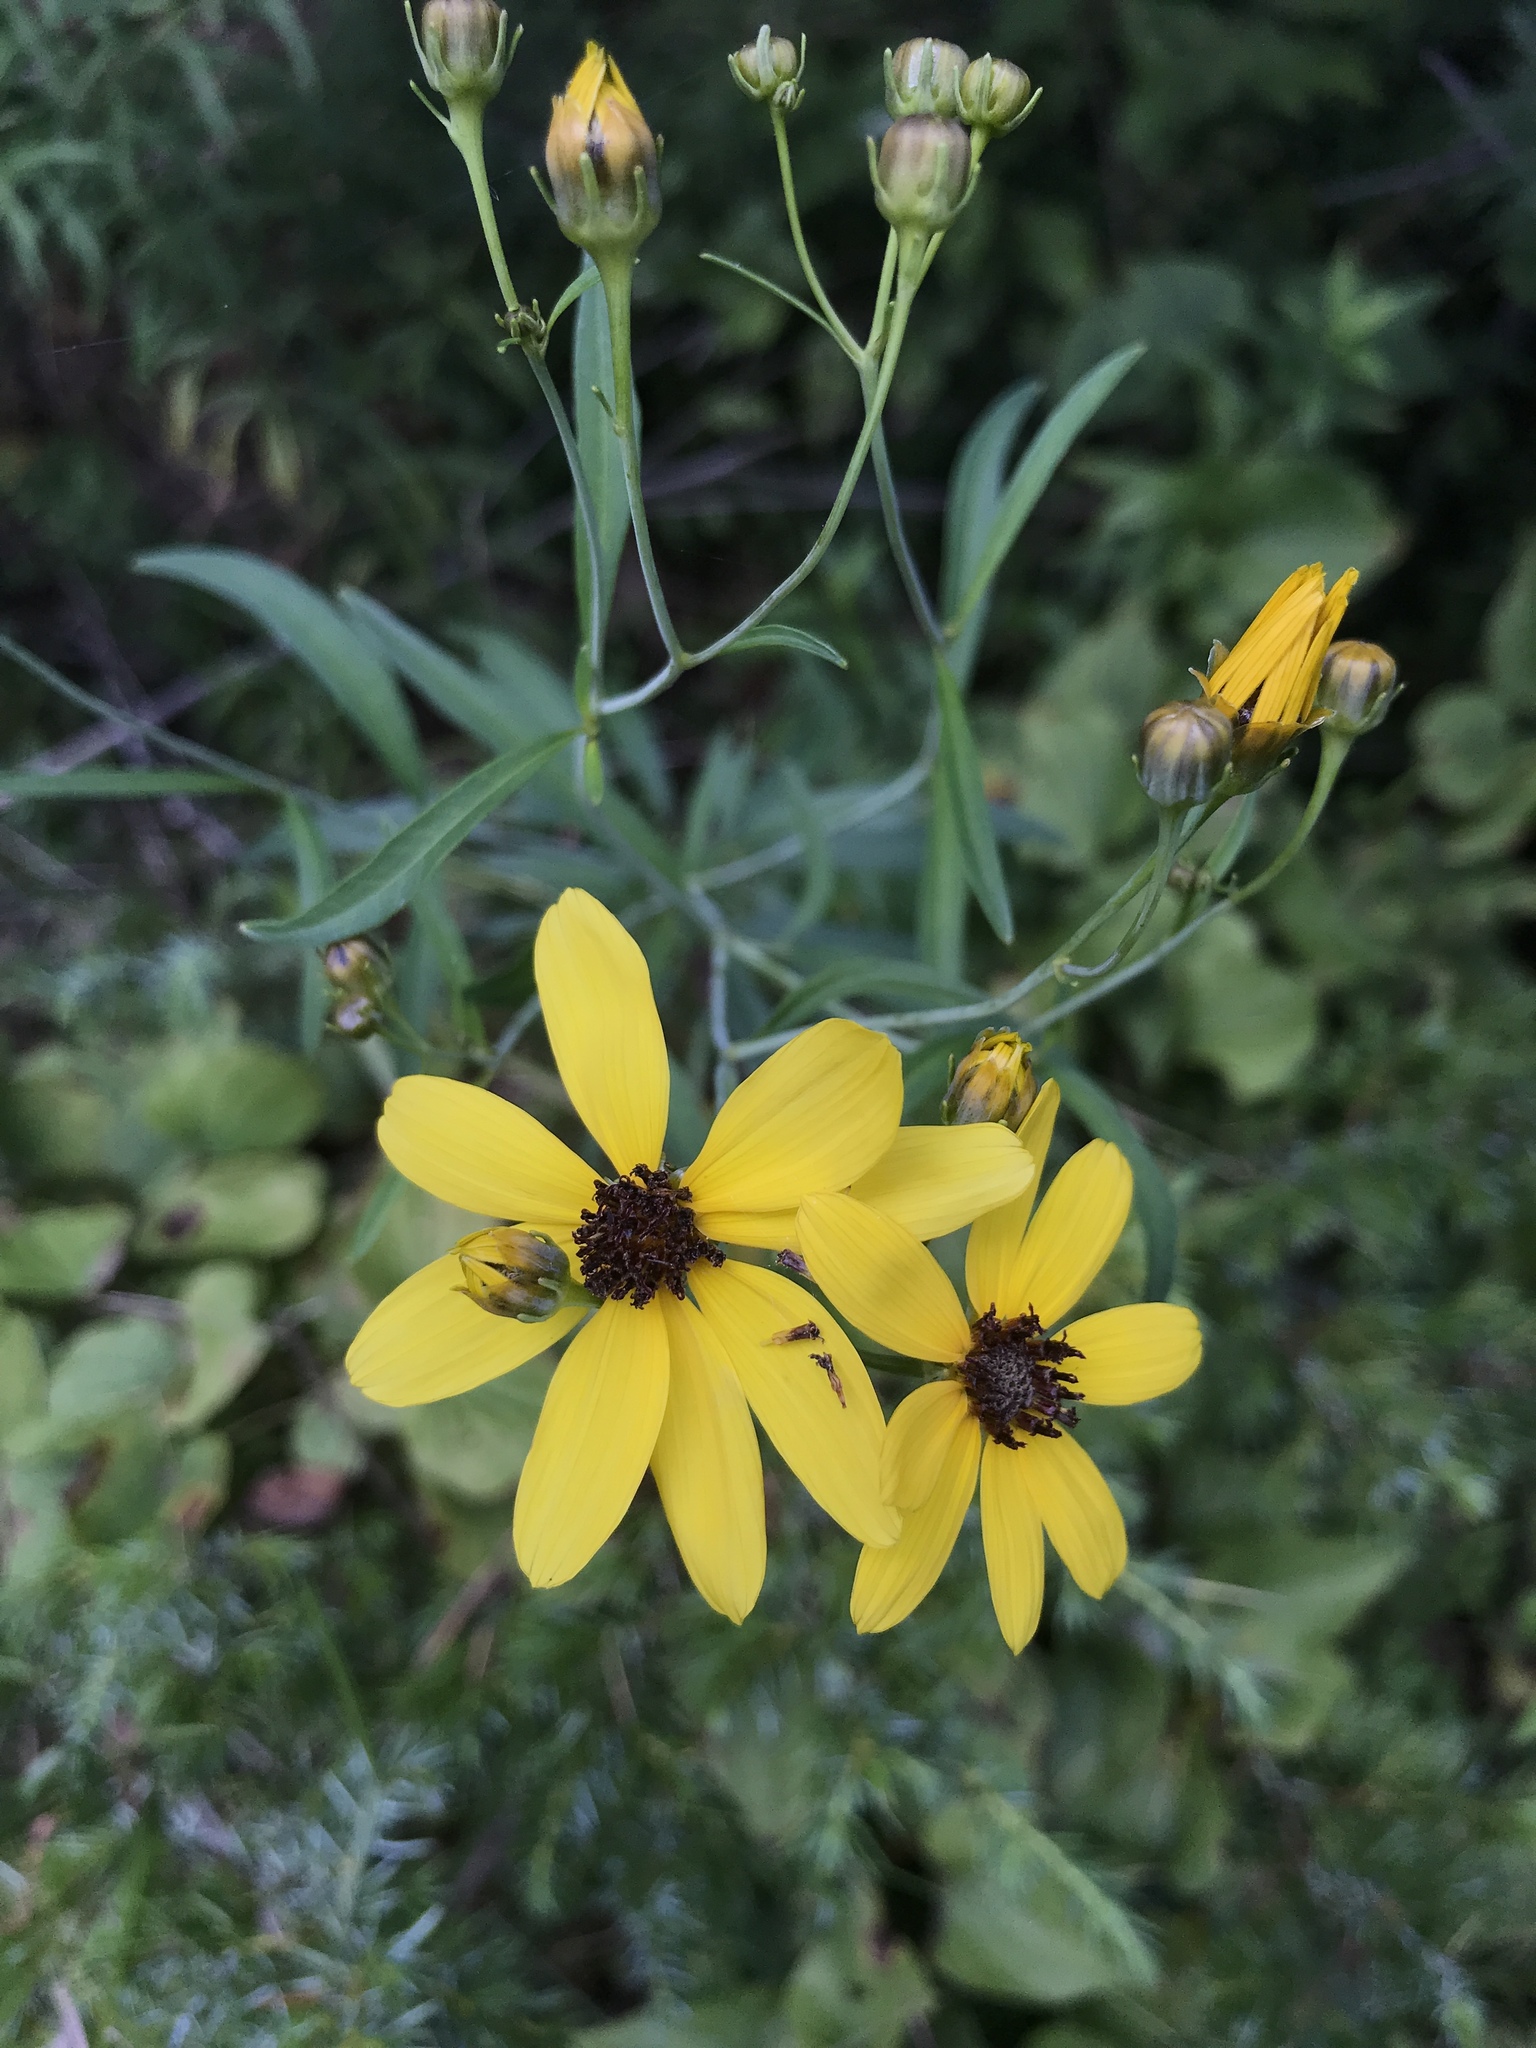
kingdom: Plantae
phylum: Tracheophyta
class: Magnoliopsida
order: Asterales
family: Asteraceae
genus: Coreopsis
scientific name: Coreopsis tripteris
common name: Tall coreopsis
